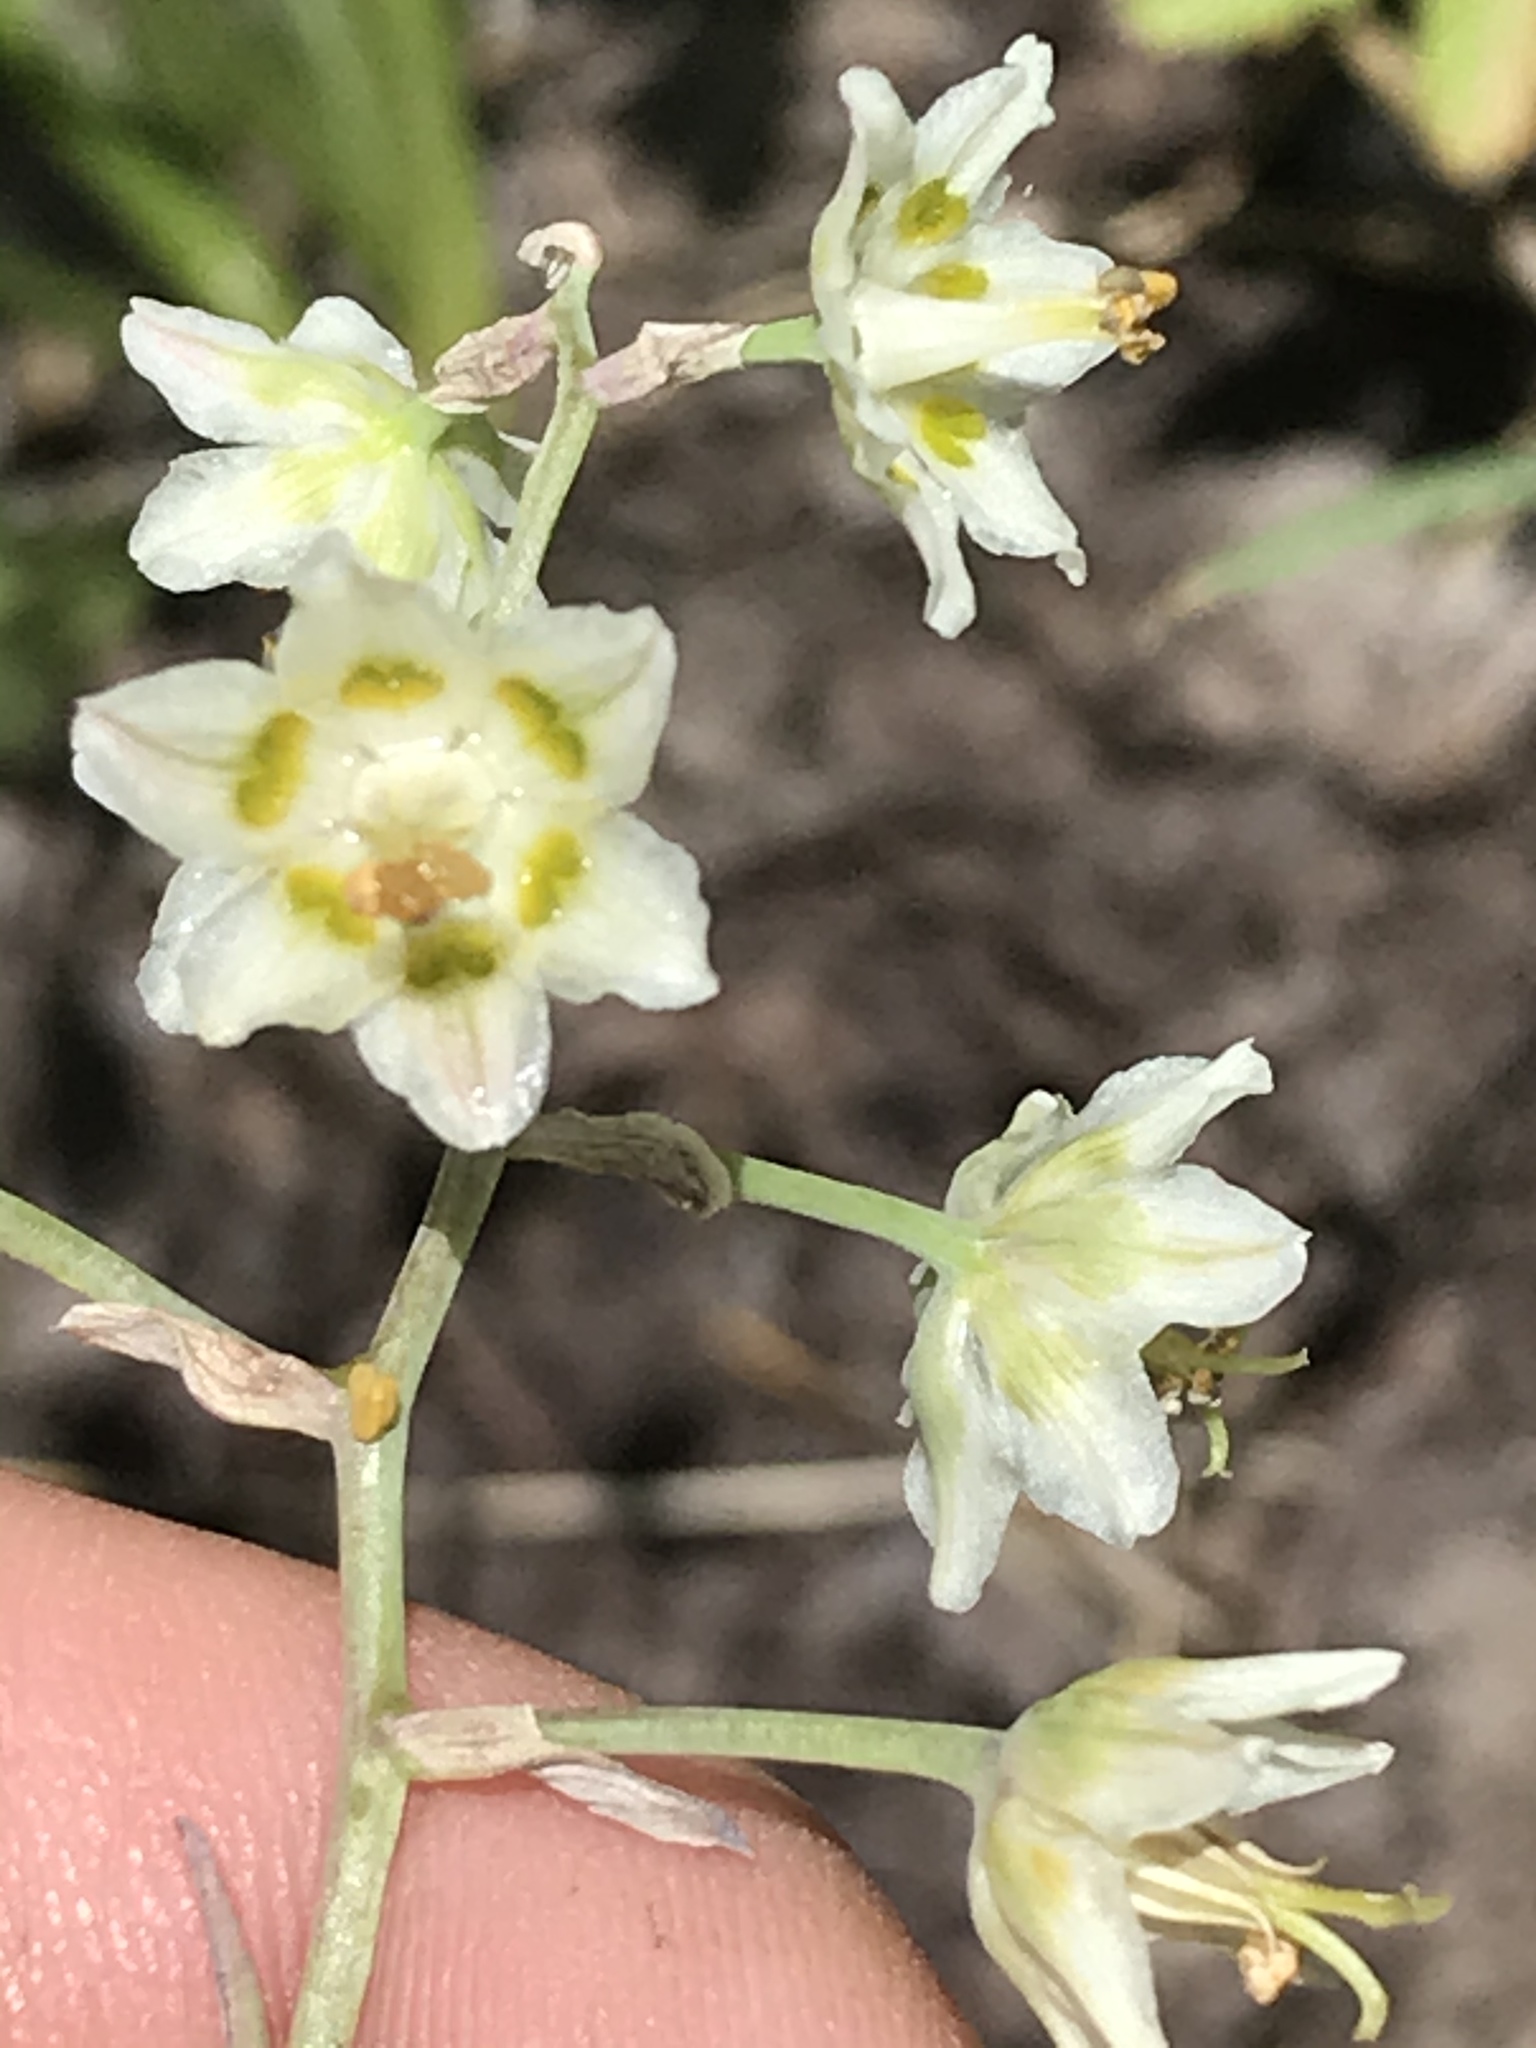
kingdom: Plantae
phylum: Tracheophyta
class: Liliopsida
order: Liliales
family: Melanthiaceae
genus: Anticlea
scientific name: Anticlea elegans
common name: Mountain death camas
